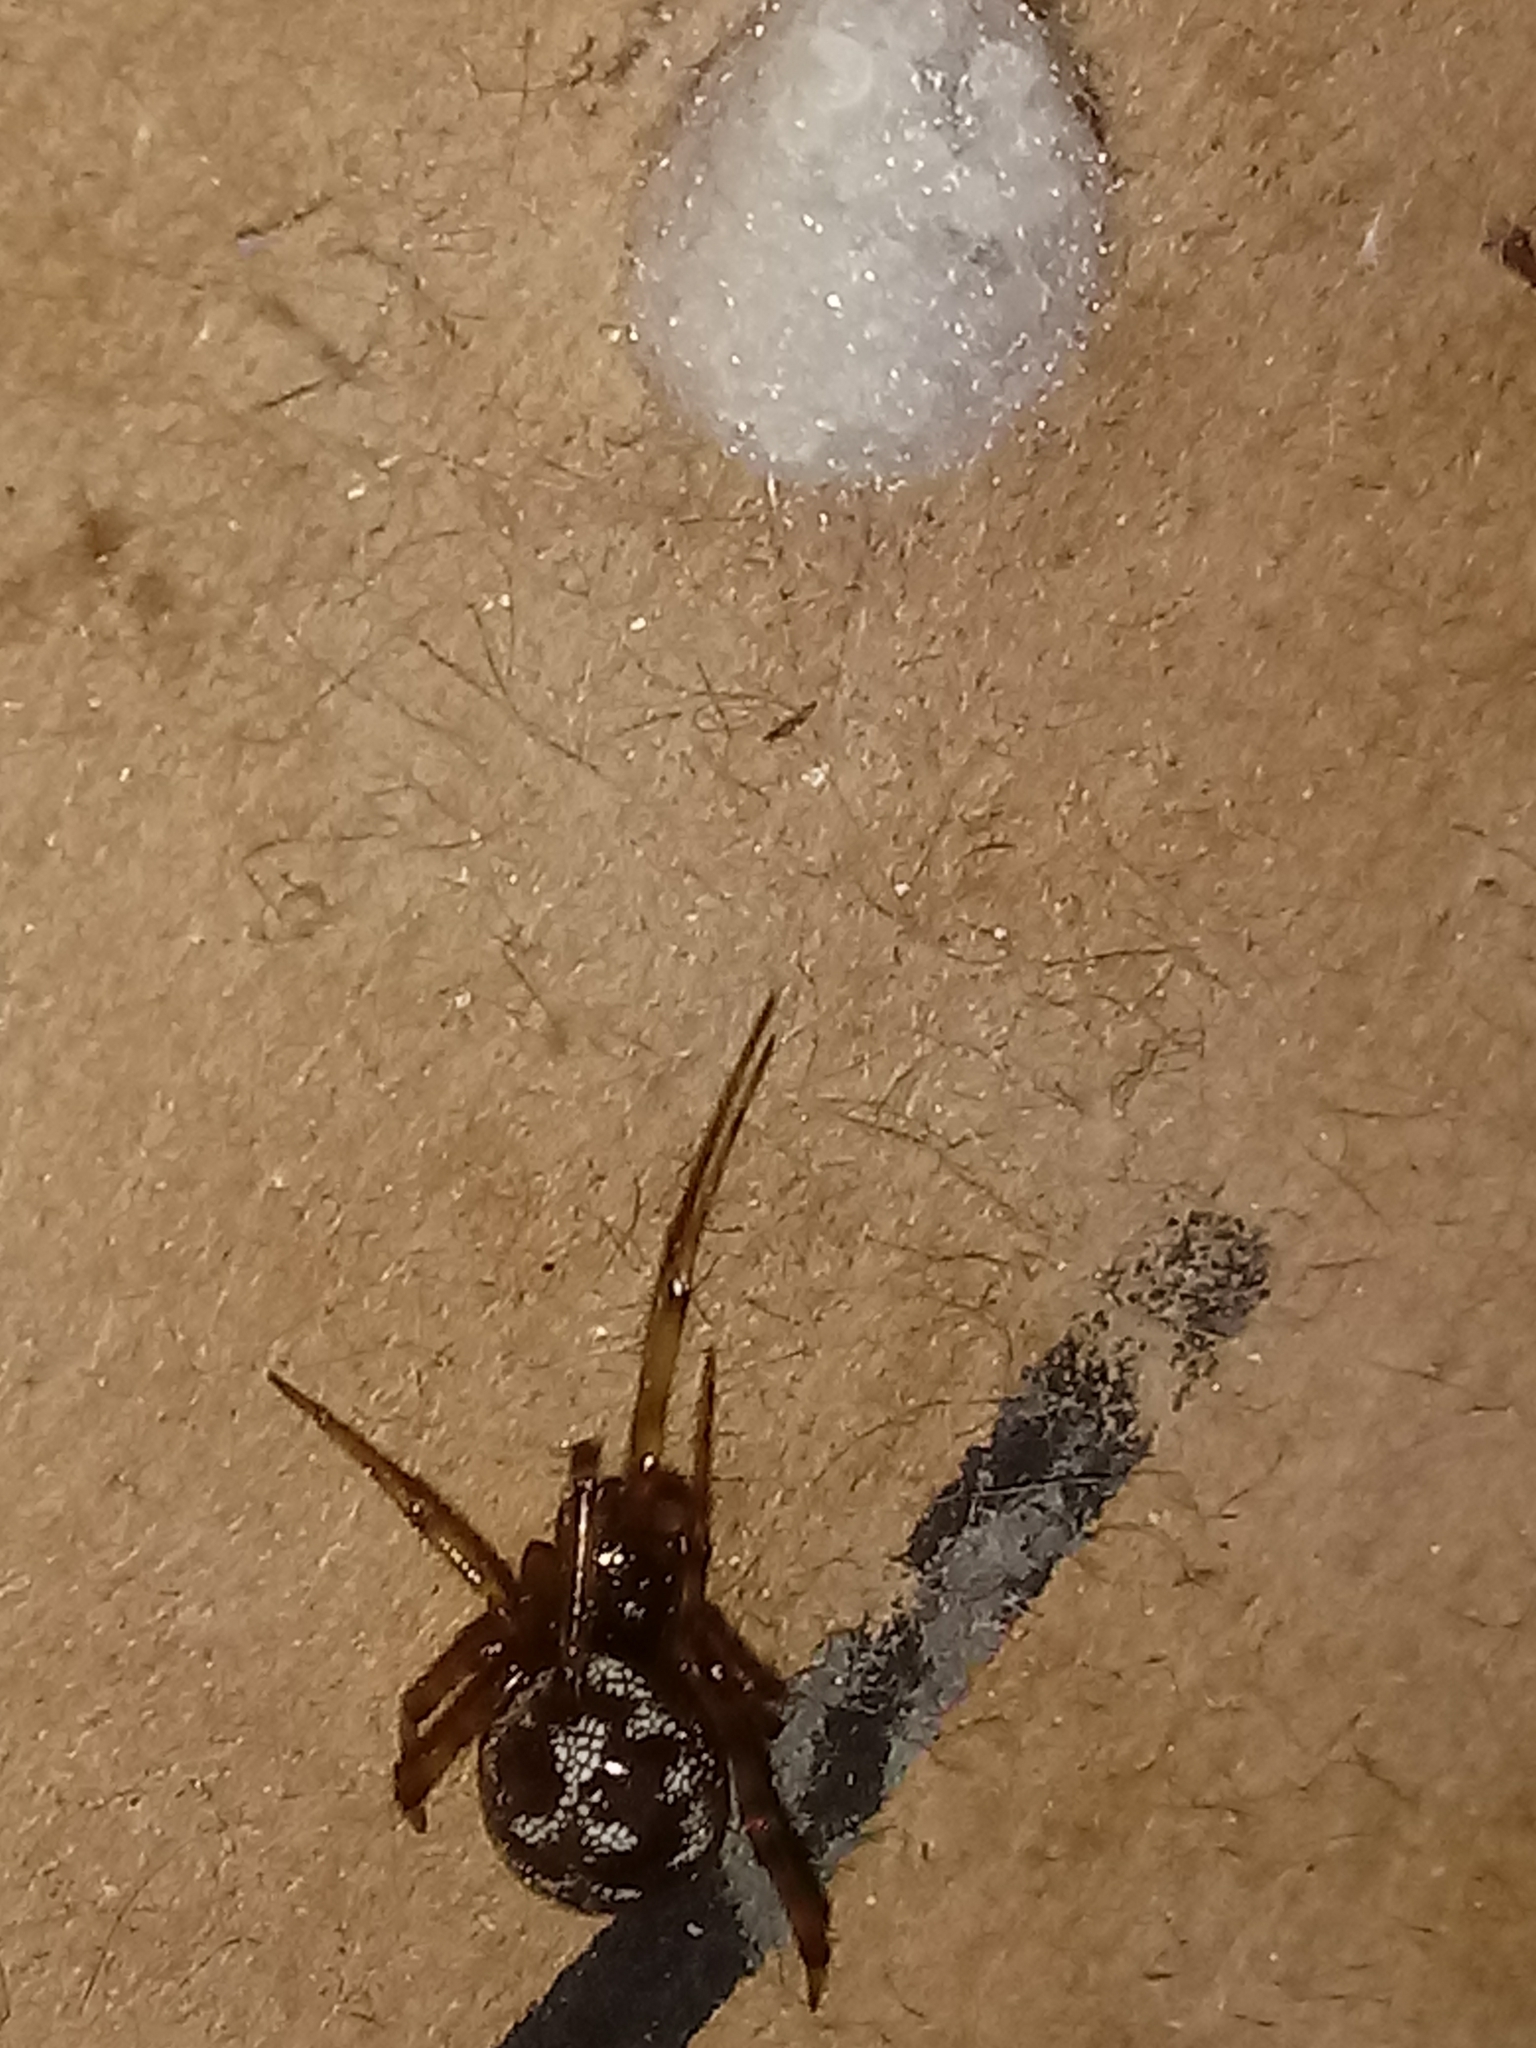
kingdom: Animalia
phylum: Arthropoda
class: Arachnida
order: Araneae
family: Theridiidae
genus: Steatoda
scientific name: Steatoda triangulosa
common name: Triangulate bud spider
